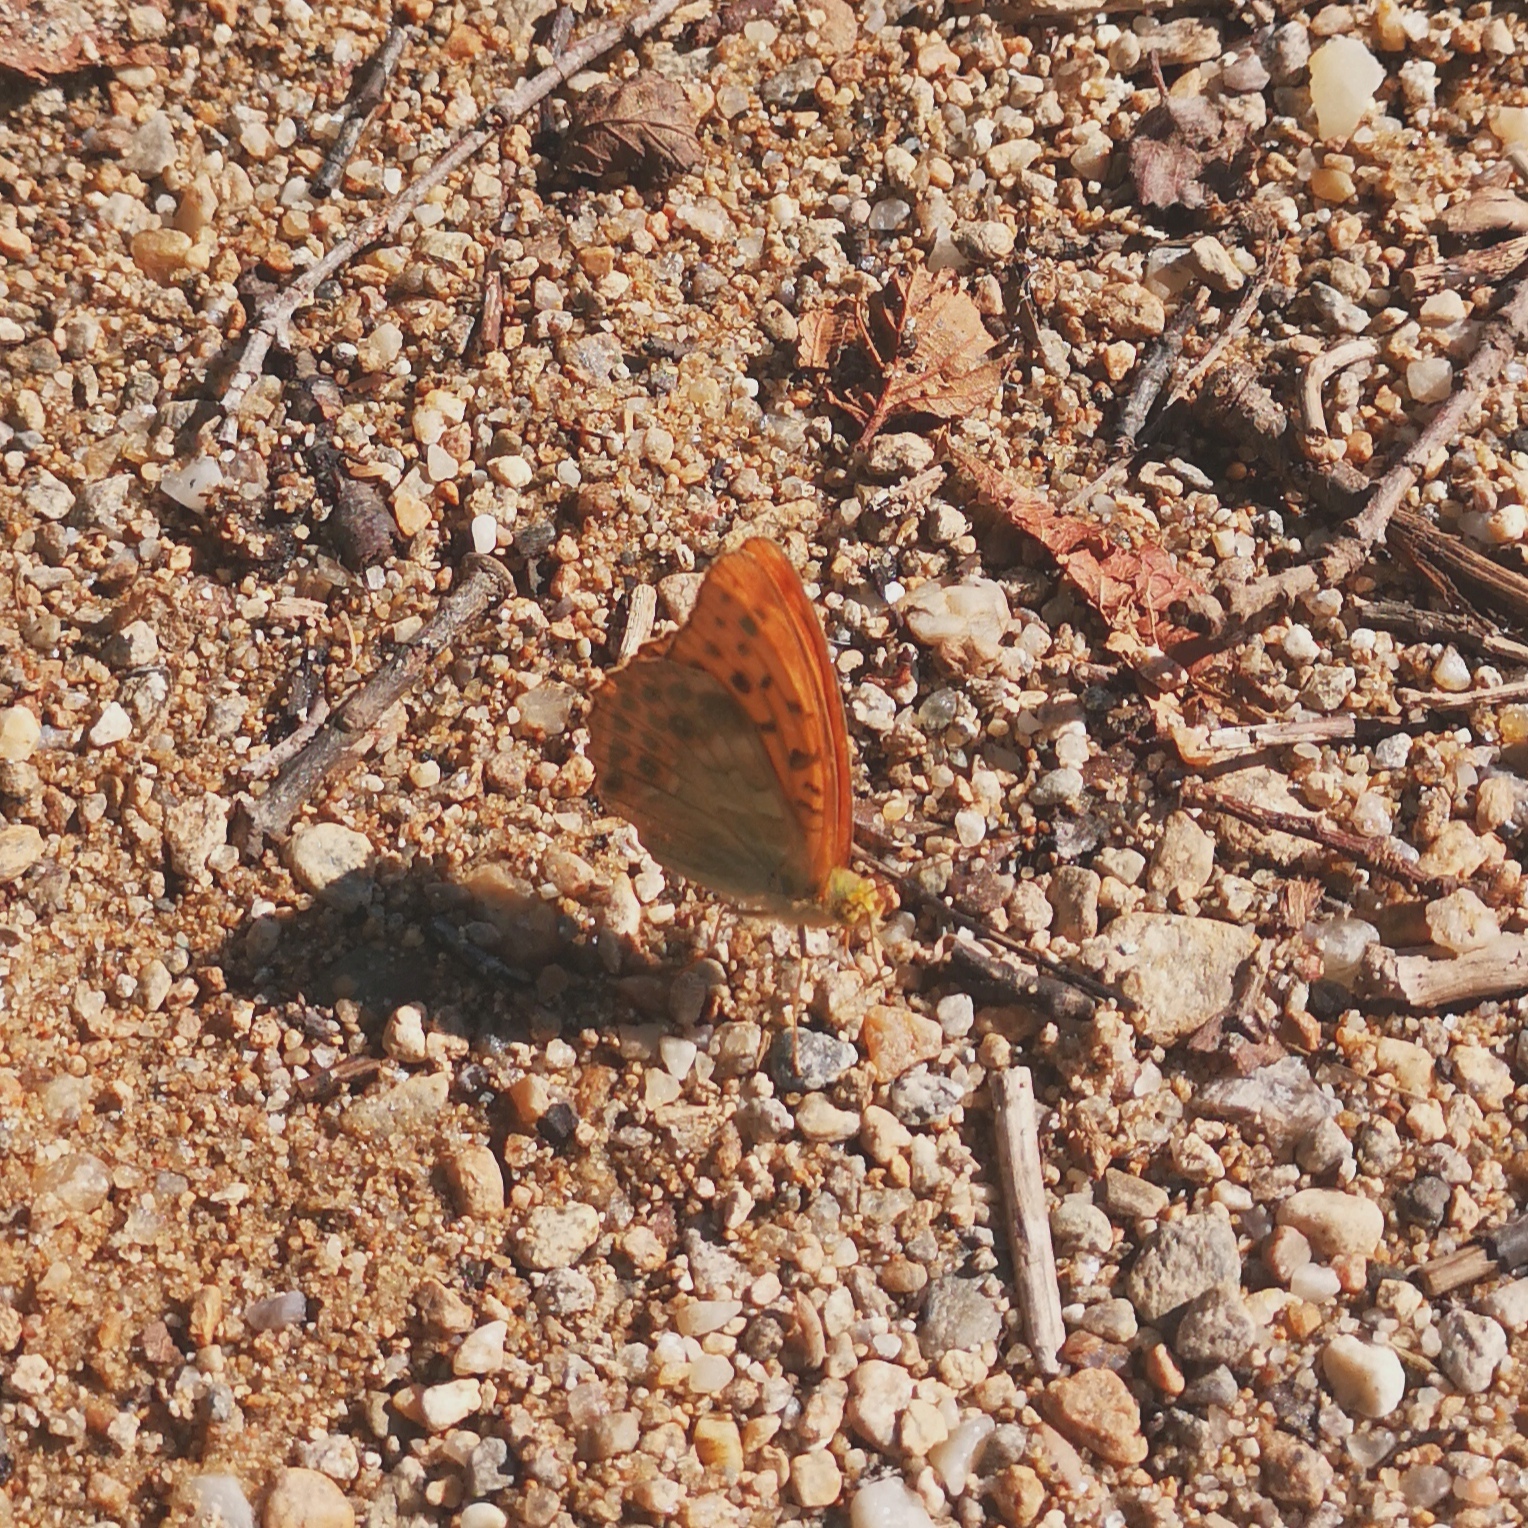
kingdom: Animalia
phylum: Arthropoda
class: Insecta
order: Lepidoptera
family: Nymphalidae
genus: Argynnis
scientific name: Argynnis paphia
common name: Silver-washed fritillary
